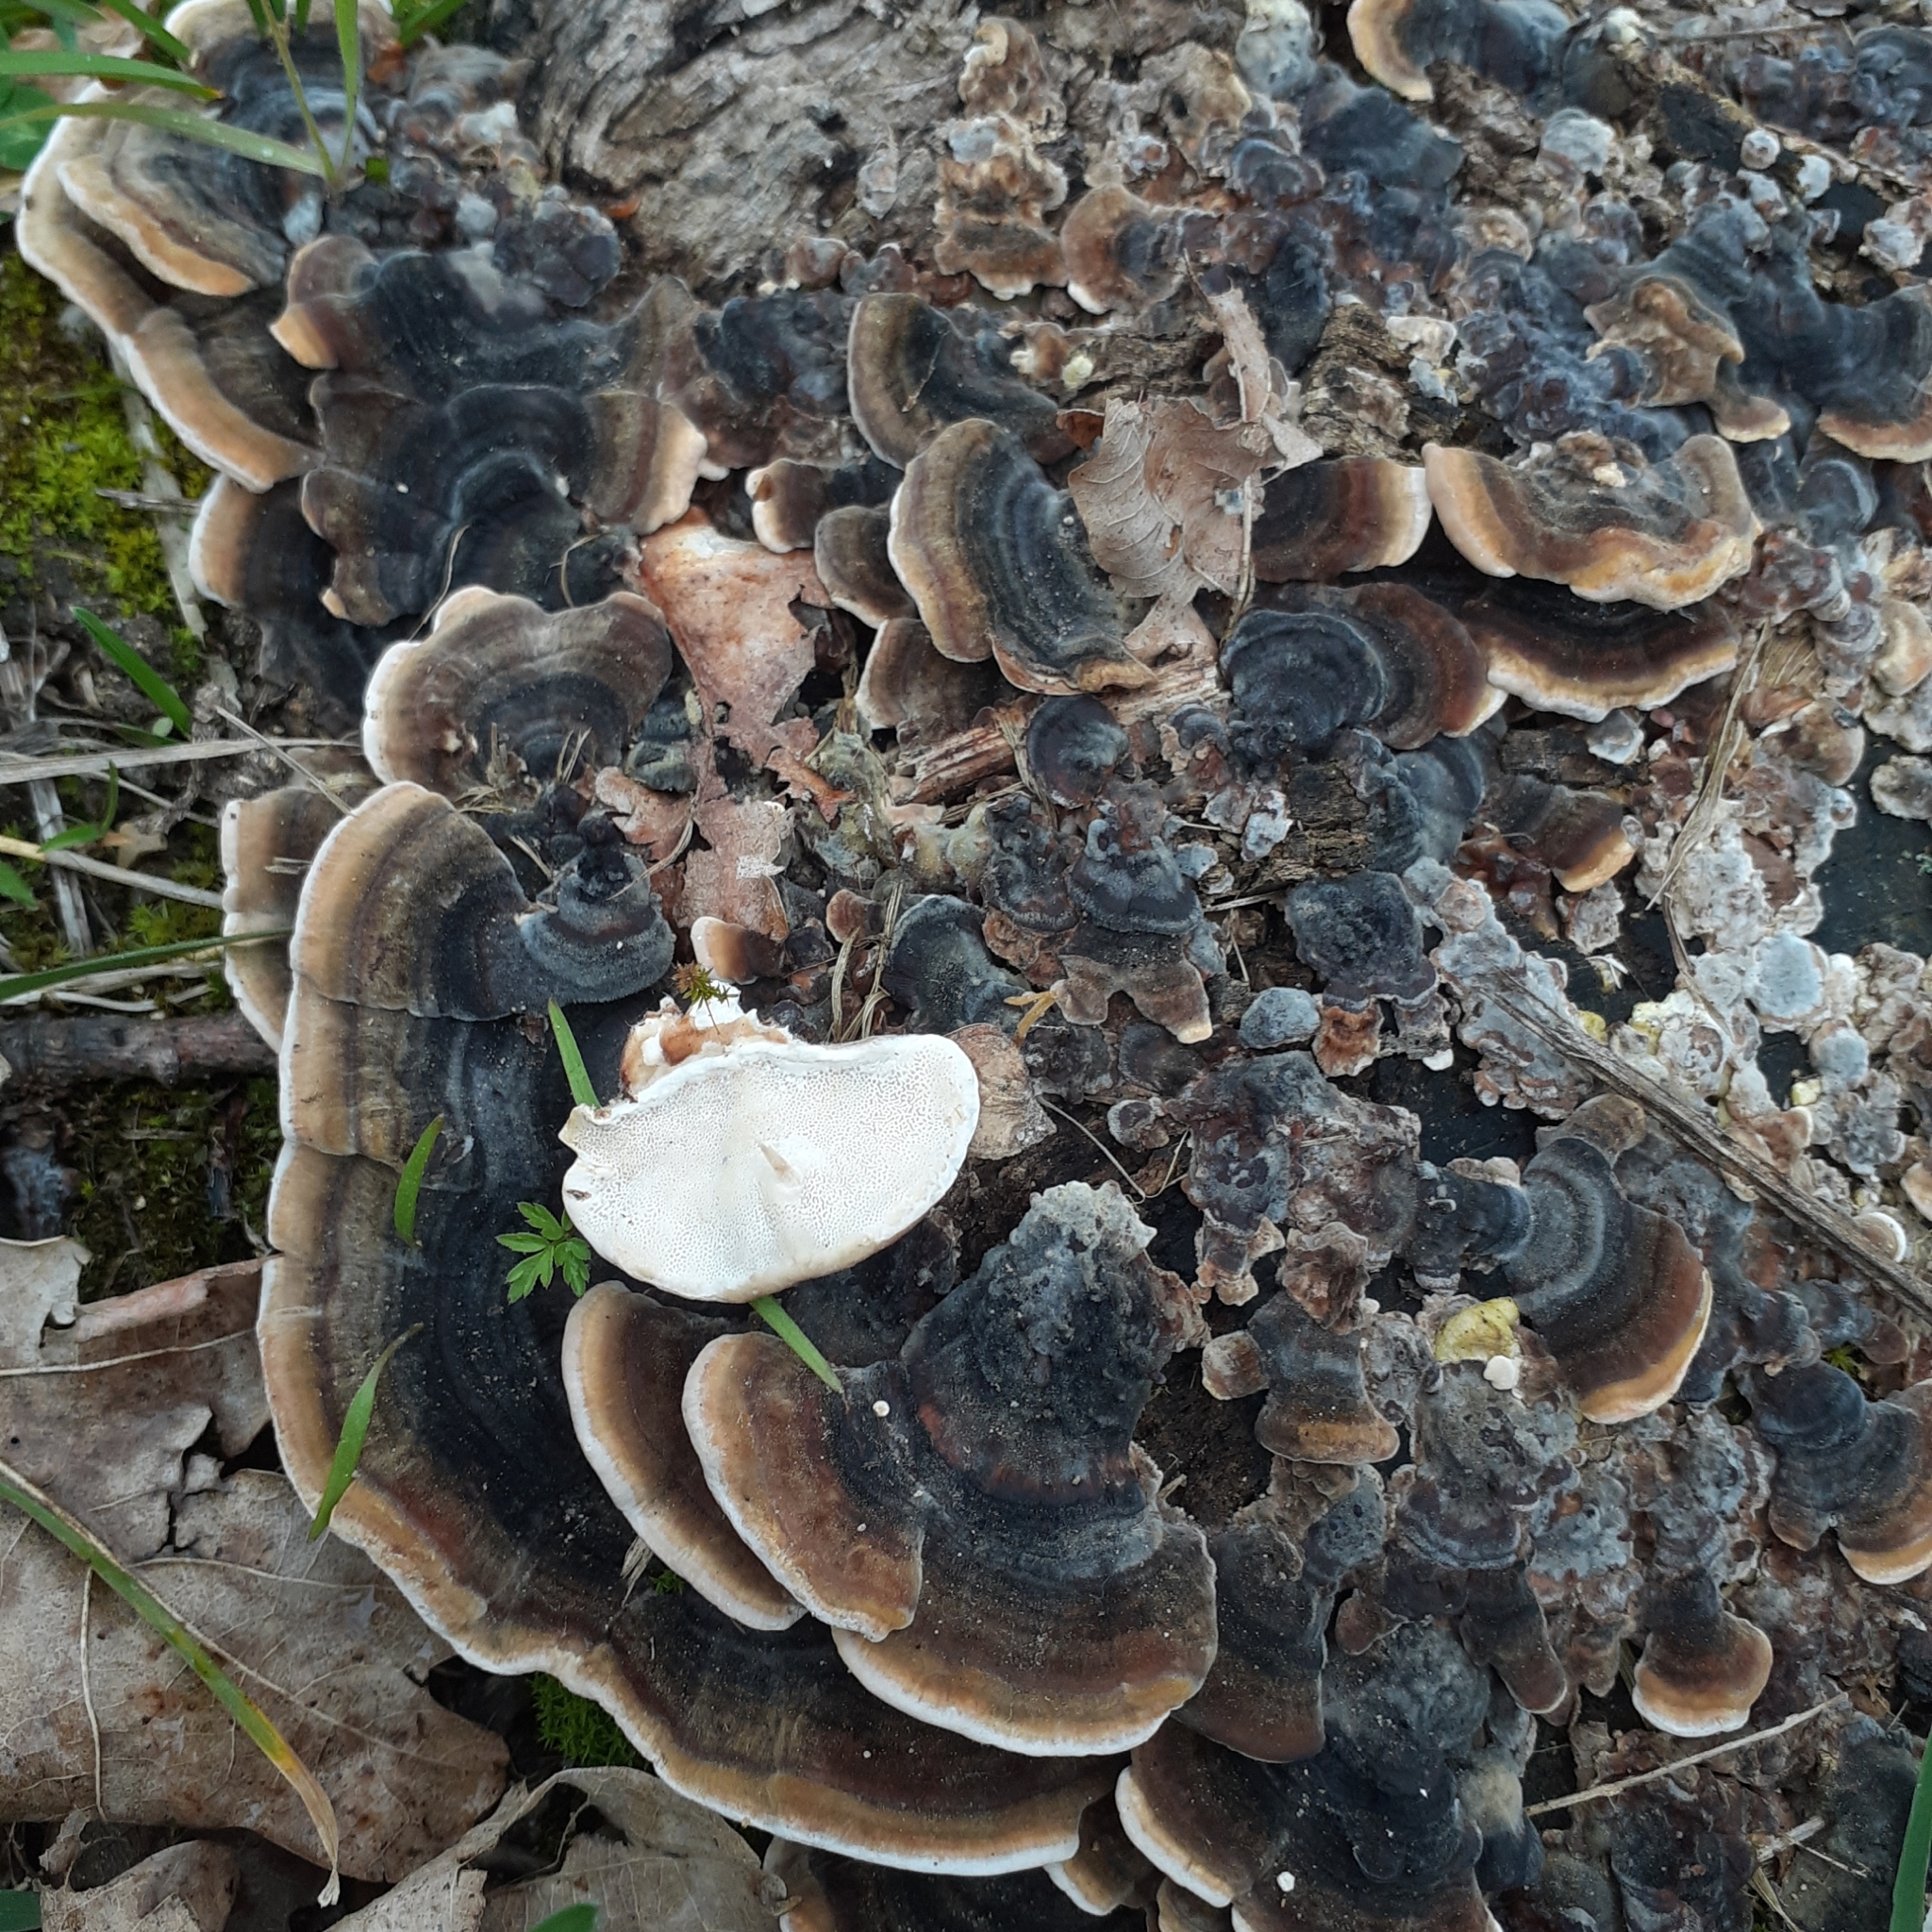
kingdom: Fungi
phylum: Basidiomycota
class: Agaricomycetes
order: Polyporales
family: Polyporaceae
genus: Trametes
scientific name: Trametes versicolor
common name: Turkeytail
